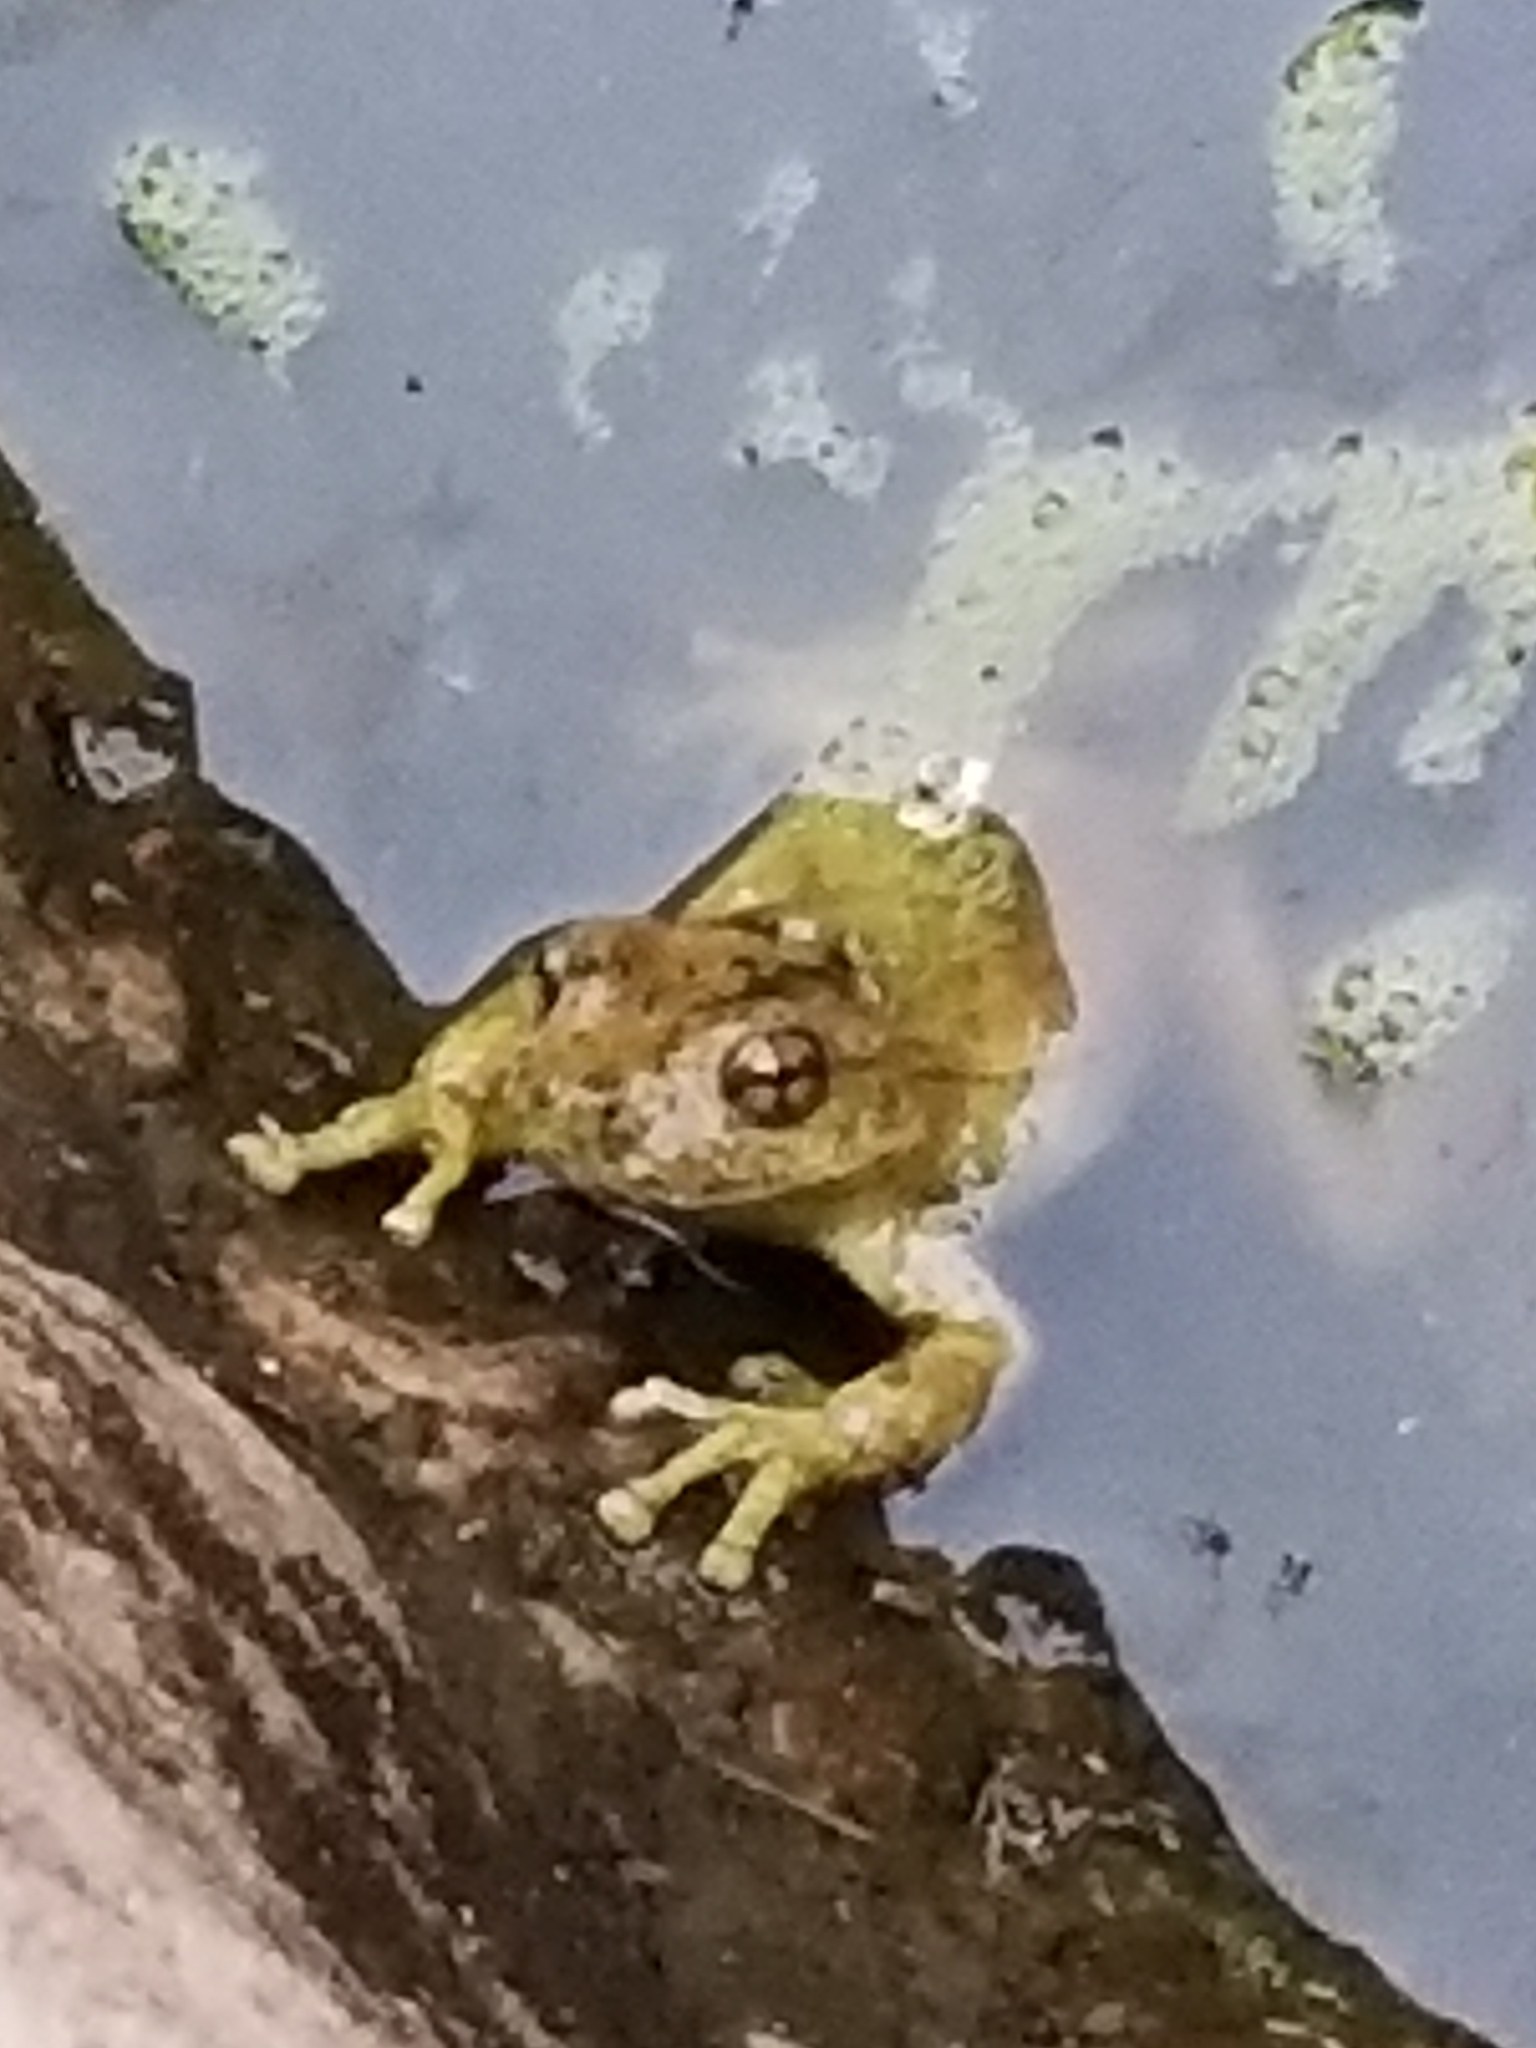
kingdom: Animalia
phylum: Chordata
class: Amphibia
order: Anura
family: Hylidae
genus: Dryophytes
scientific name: Dryophytes arenicolor
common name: Canyon treefrog
